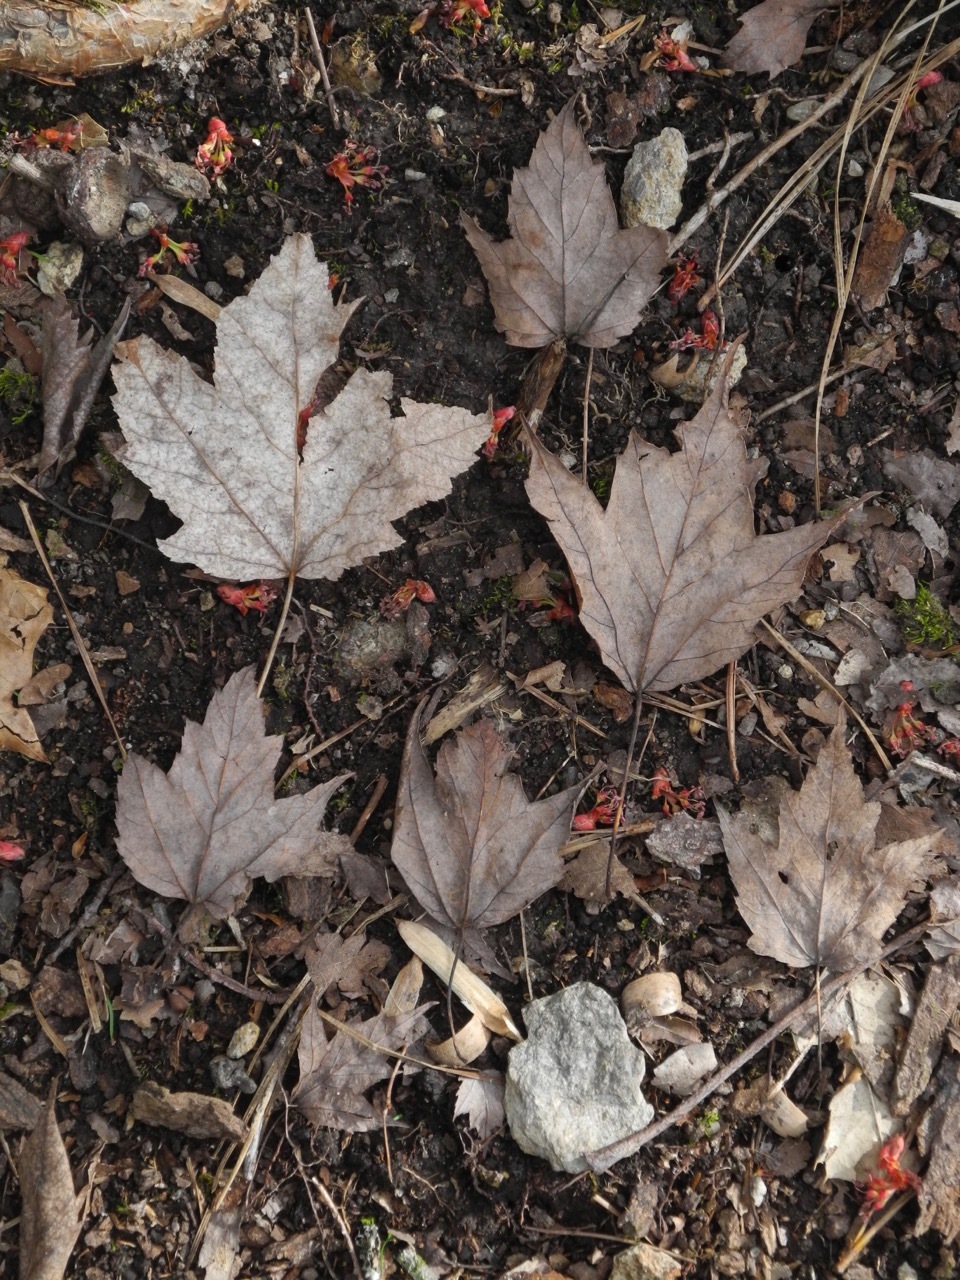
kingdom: Plantae
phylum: Tracheophyta
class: Magnoliopsida
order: Sapindales
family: Sapindaceae
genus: Acer
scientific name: Acer freemanii
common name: Freeman maple
